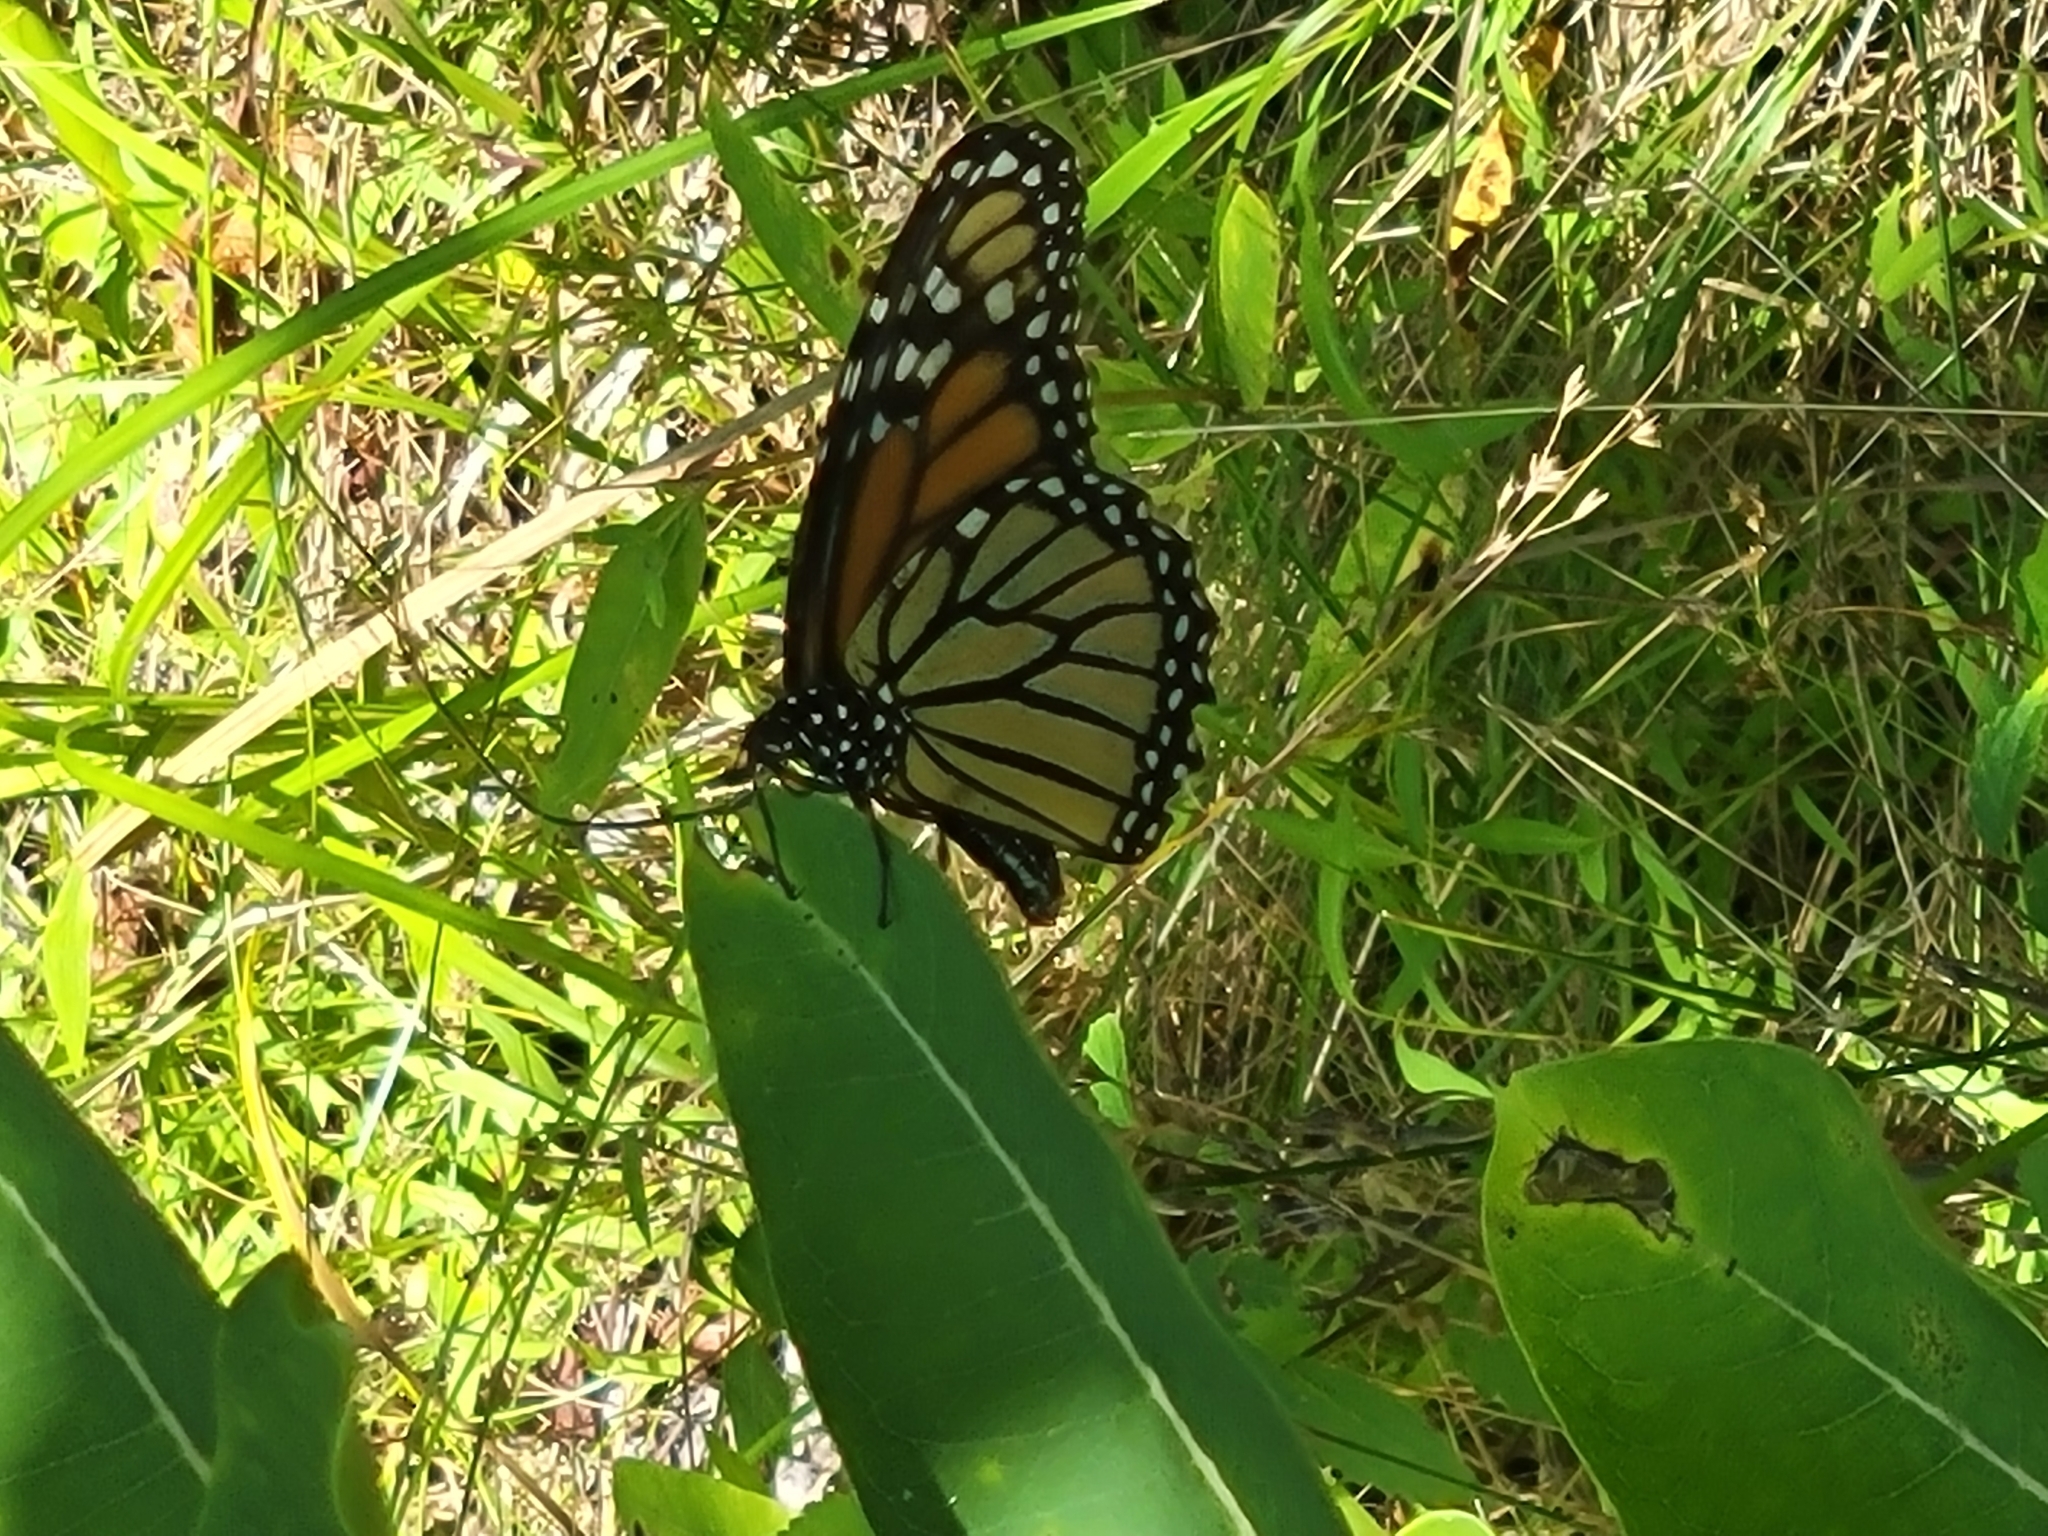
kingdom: Animalia
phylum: Arthropoda
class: Insecta
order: Lepidoptera
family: Nymphalidae
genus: Danaus
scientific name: Danaus plexippus
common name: Monarch
